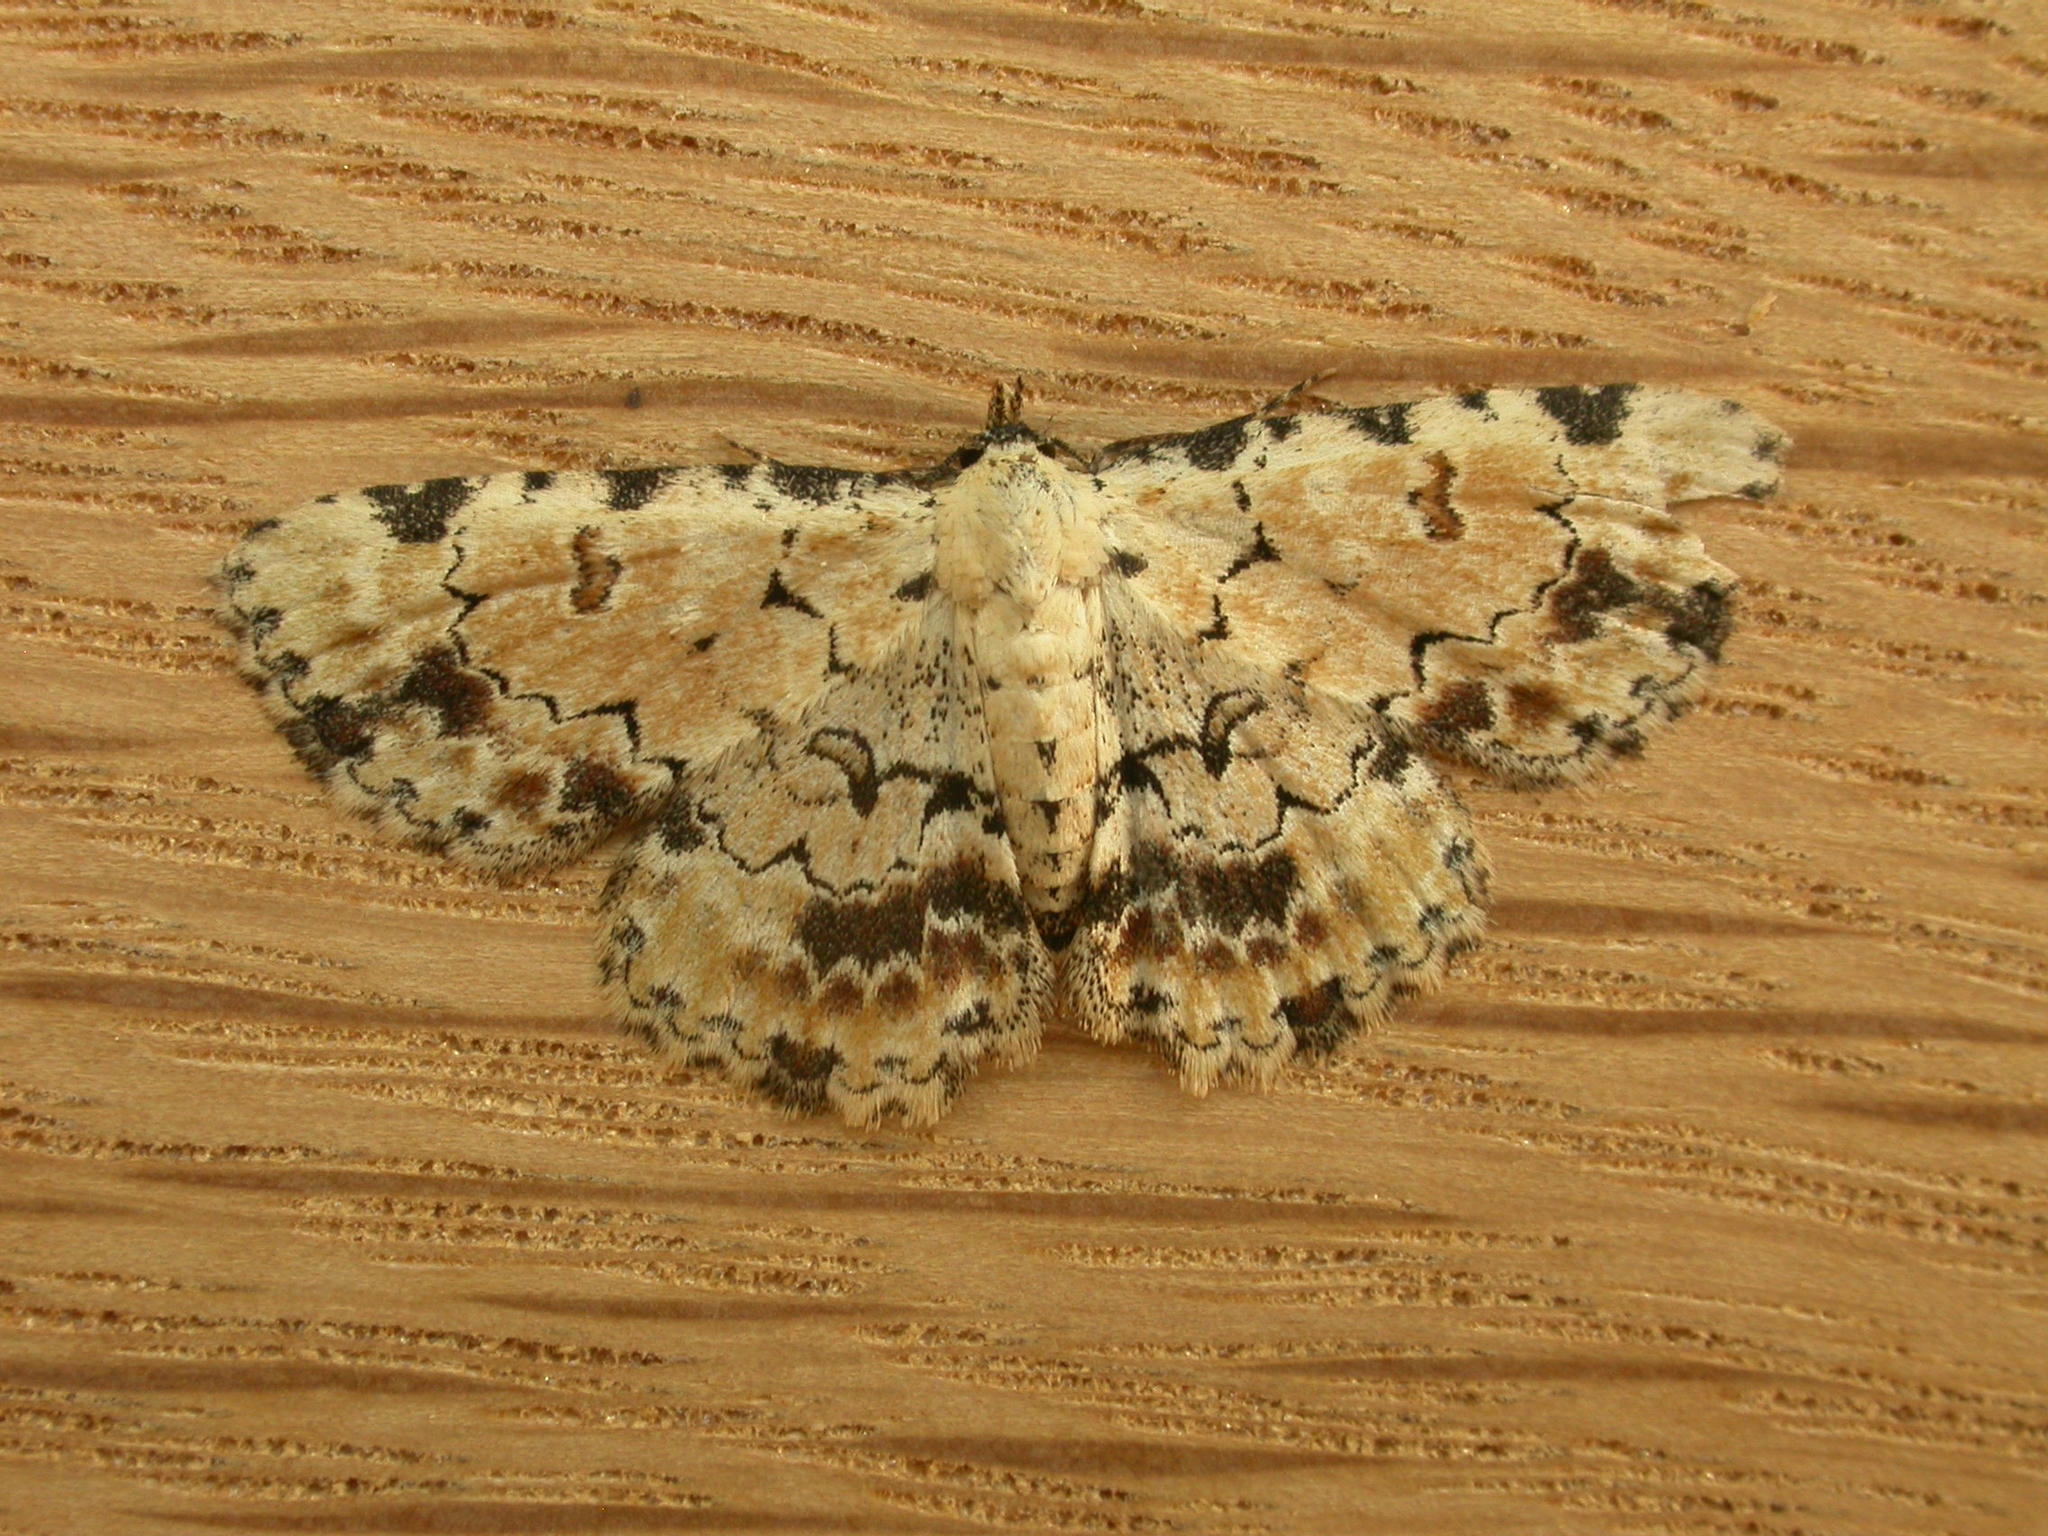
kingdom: Animalia
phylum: Arthropoda
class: Insecta
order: Lepidoptera
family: Erebidae
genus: Sandava
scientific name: Sandava scitisignata
